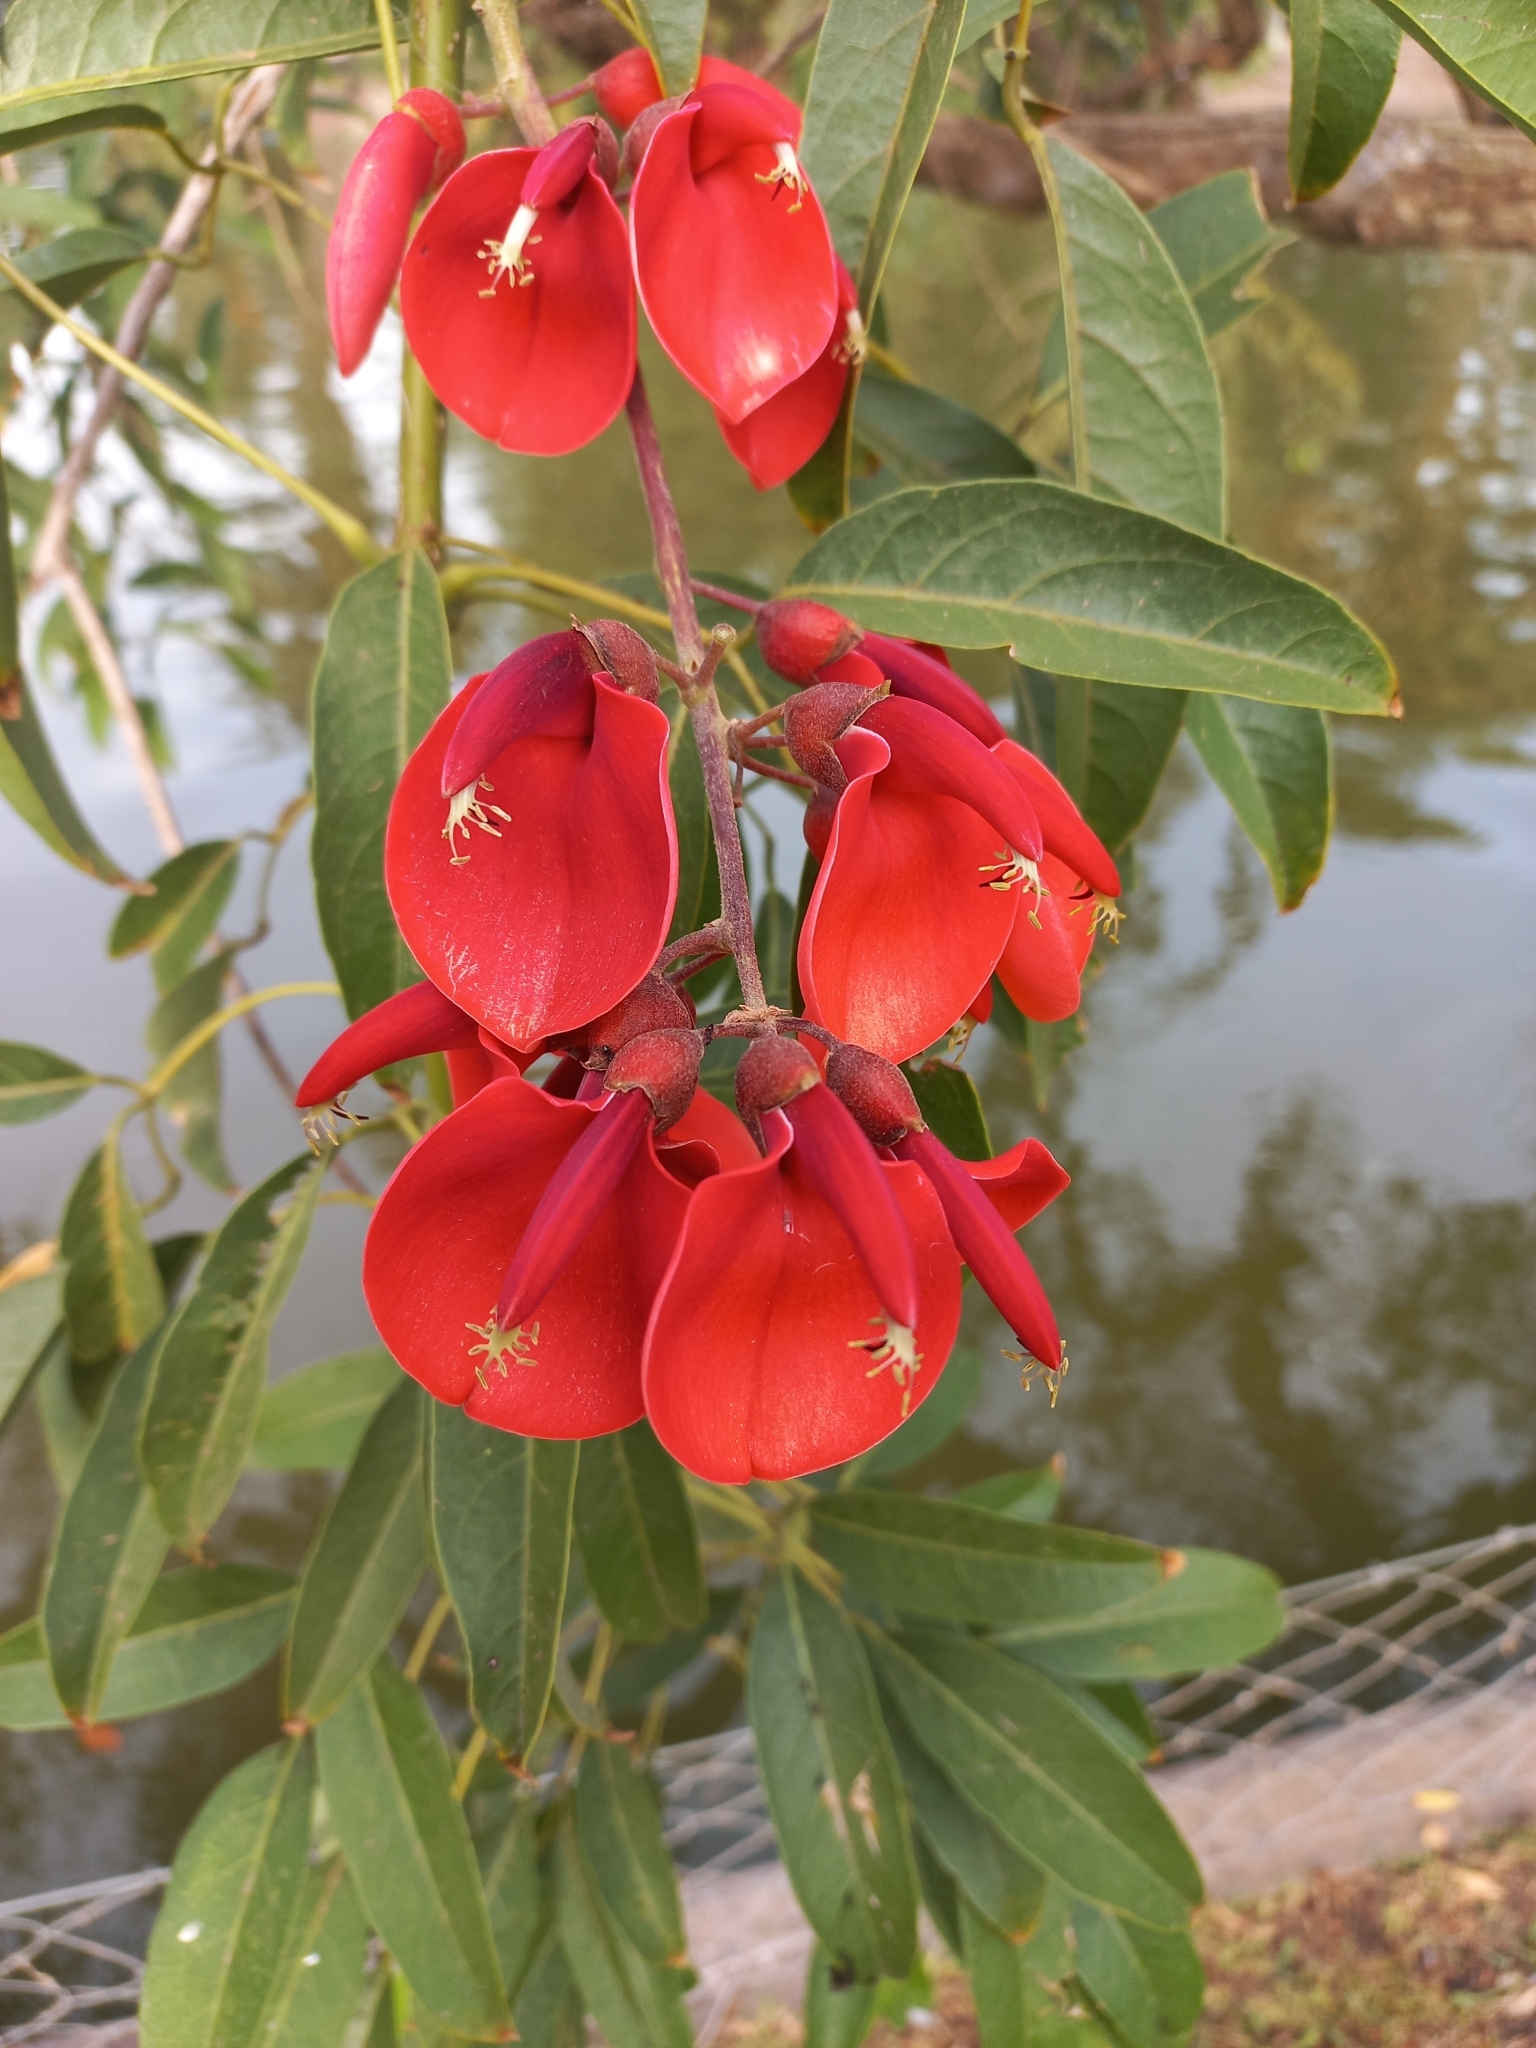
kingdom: Plantae
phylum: Tracheophyta
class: Magnoliopsida
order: Fabales
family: Fabaceae
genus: Erythrina
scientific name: Erythrina crista-galli
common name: Cockspur coral tree
